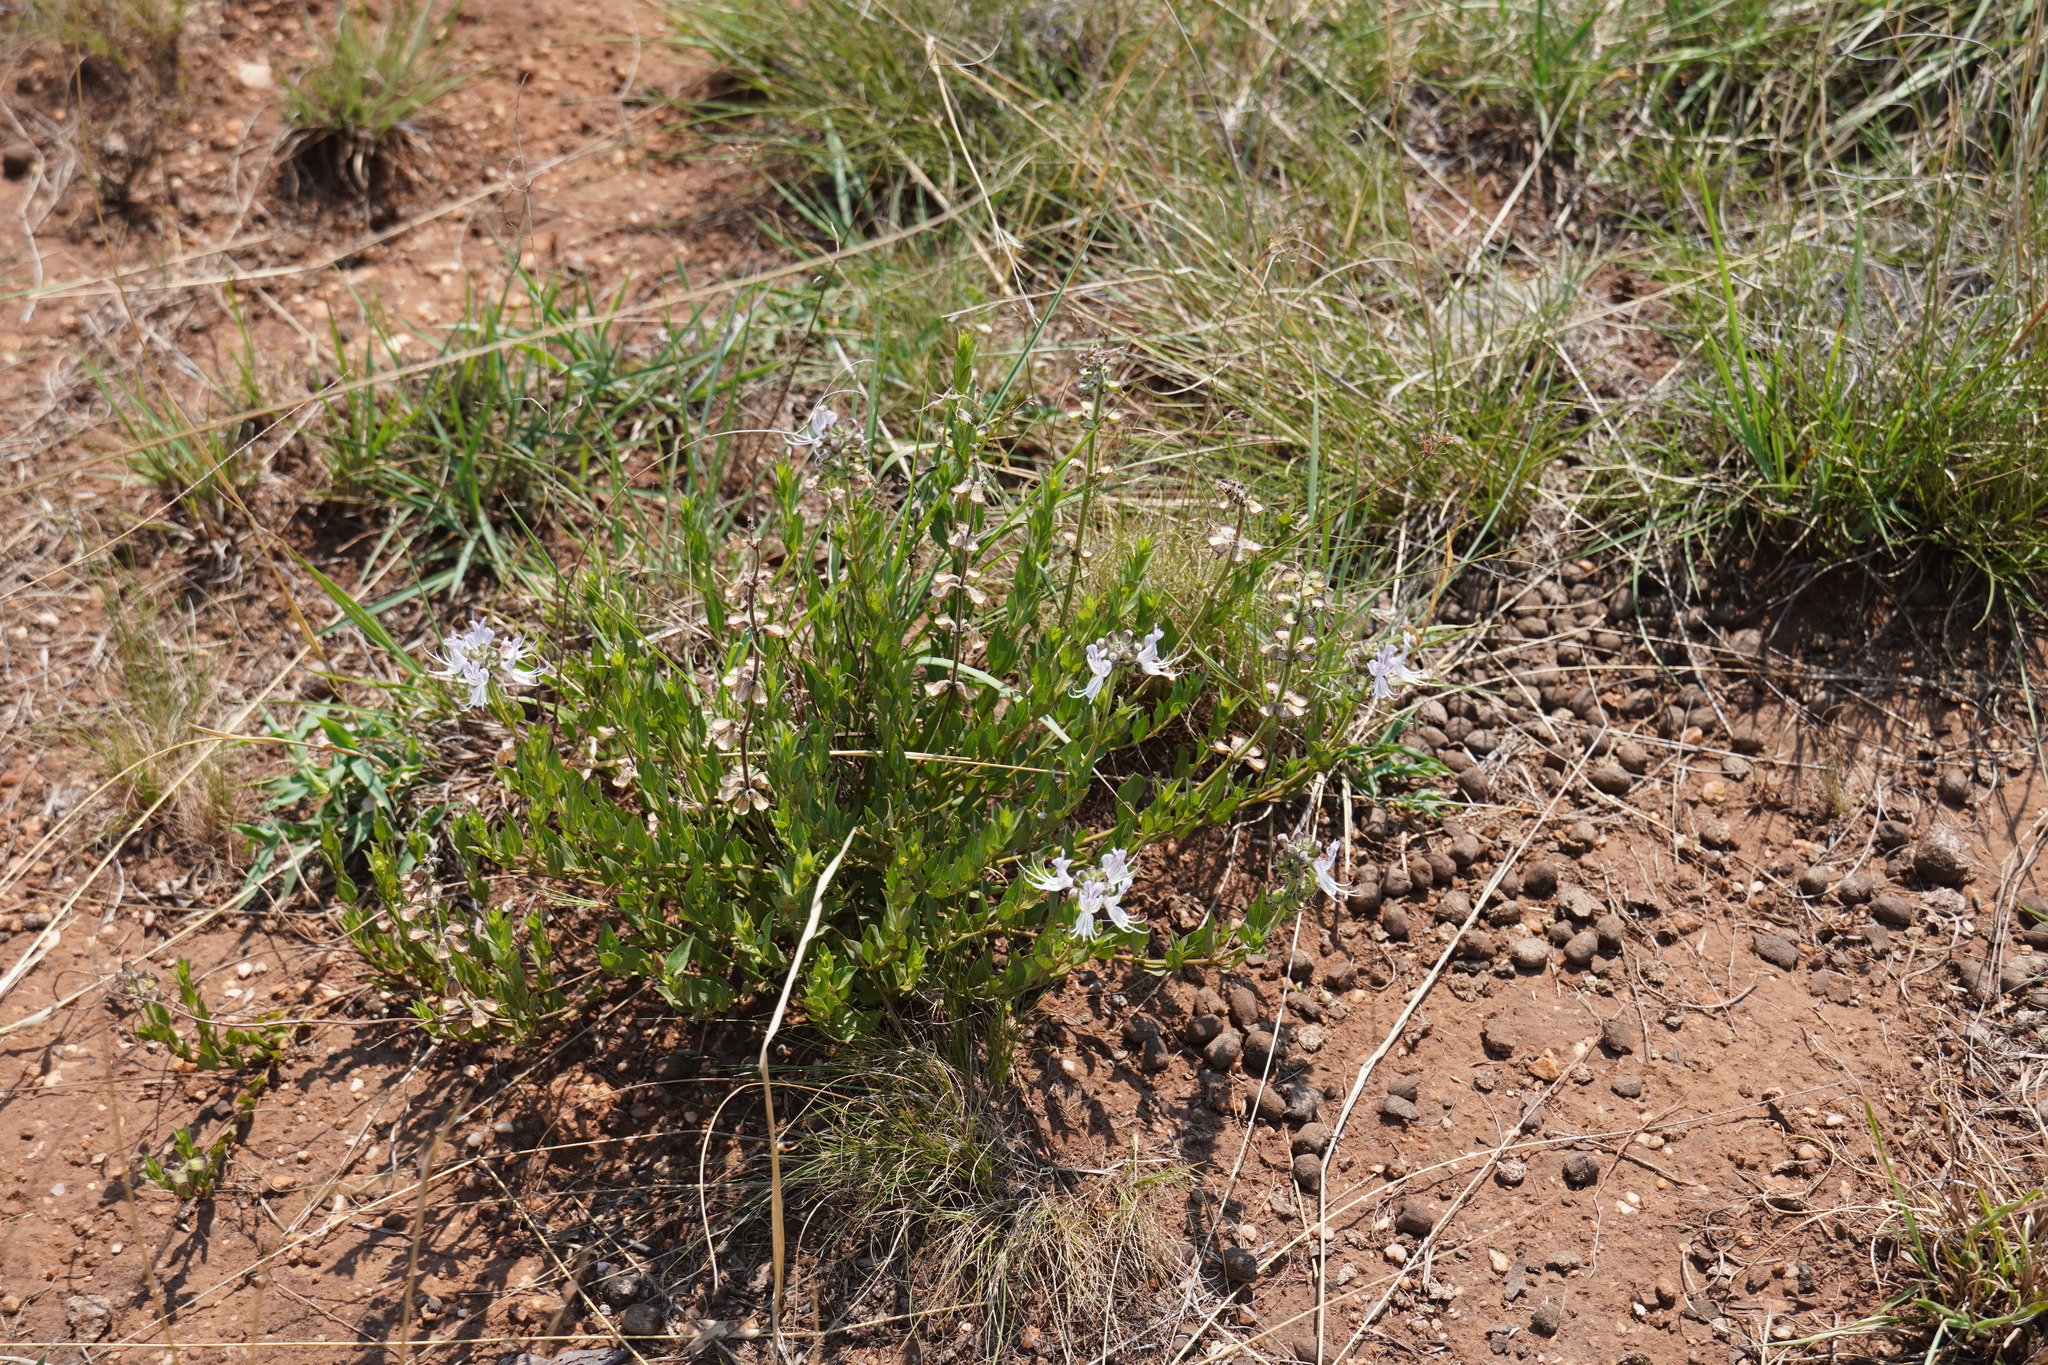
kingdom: Plantae
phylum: Tracheophyta
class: Magnoliopsida
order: Lamiales
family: Lamiaceae
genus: Ocimum
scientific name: Ocimum obovatum
